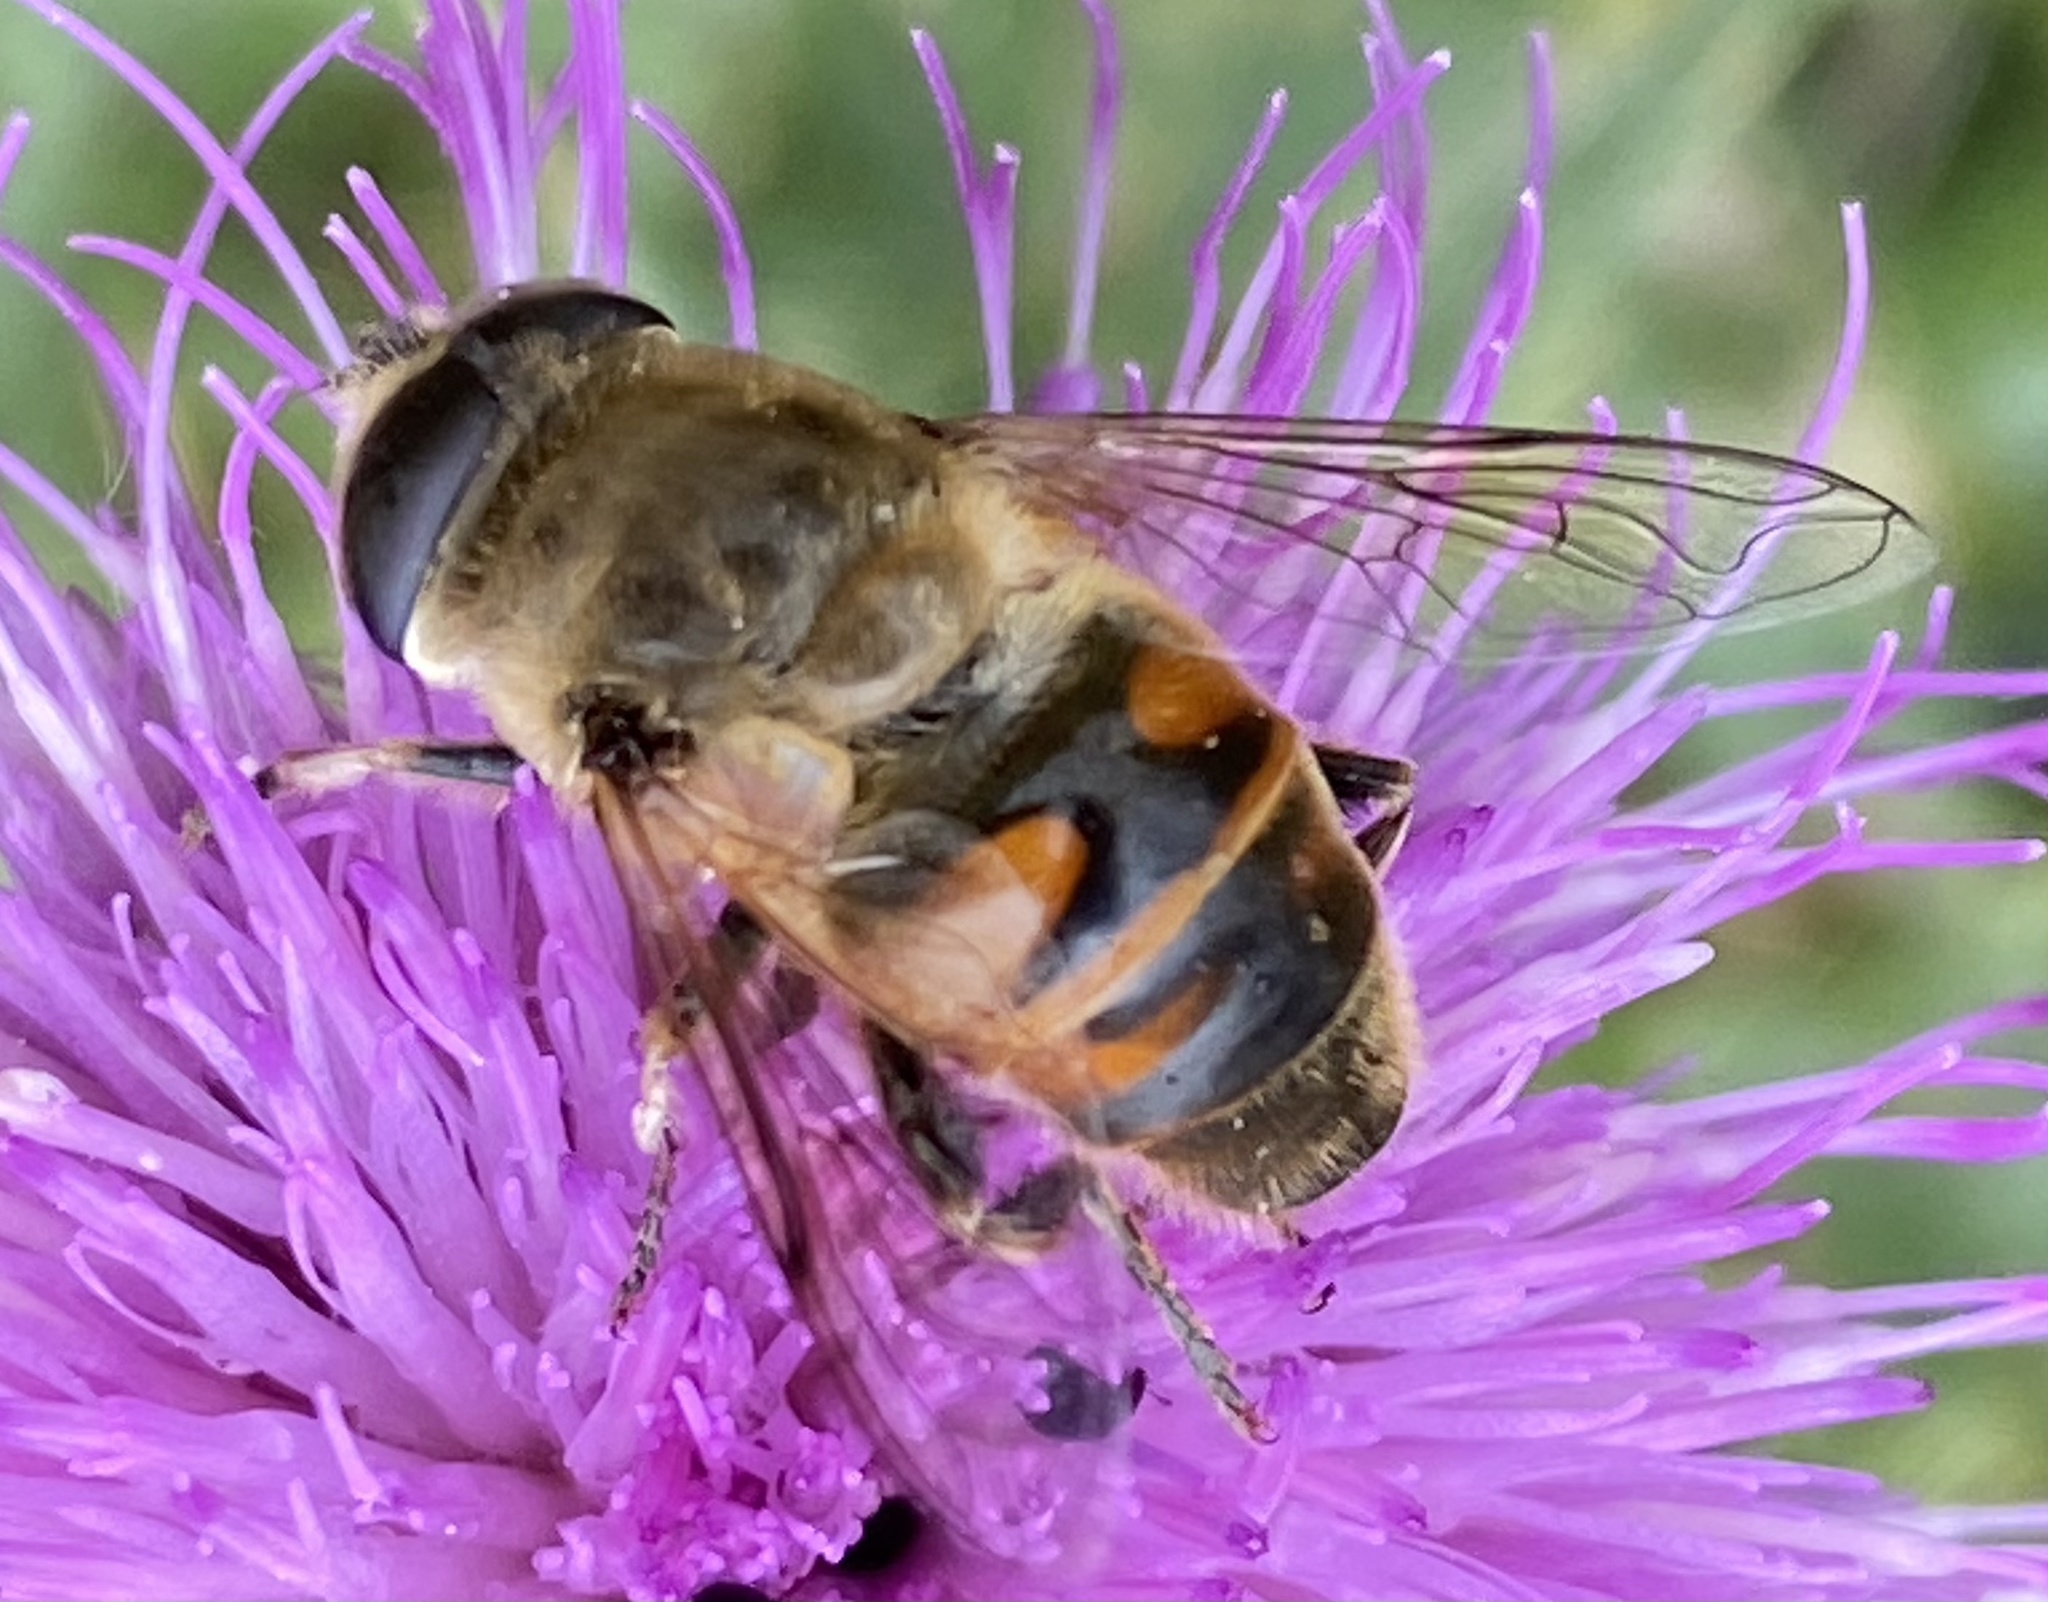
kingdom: Animalia
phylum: Arthropoda
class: Insecta
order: Diptera
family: Syrphidae
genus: Eristalis
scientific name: Eristalis tenax
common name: Drone fly
